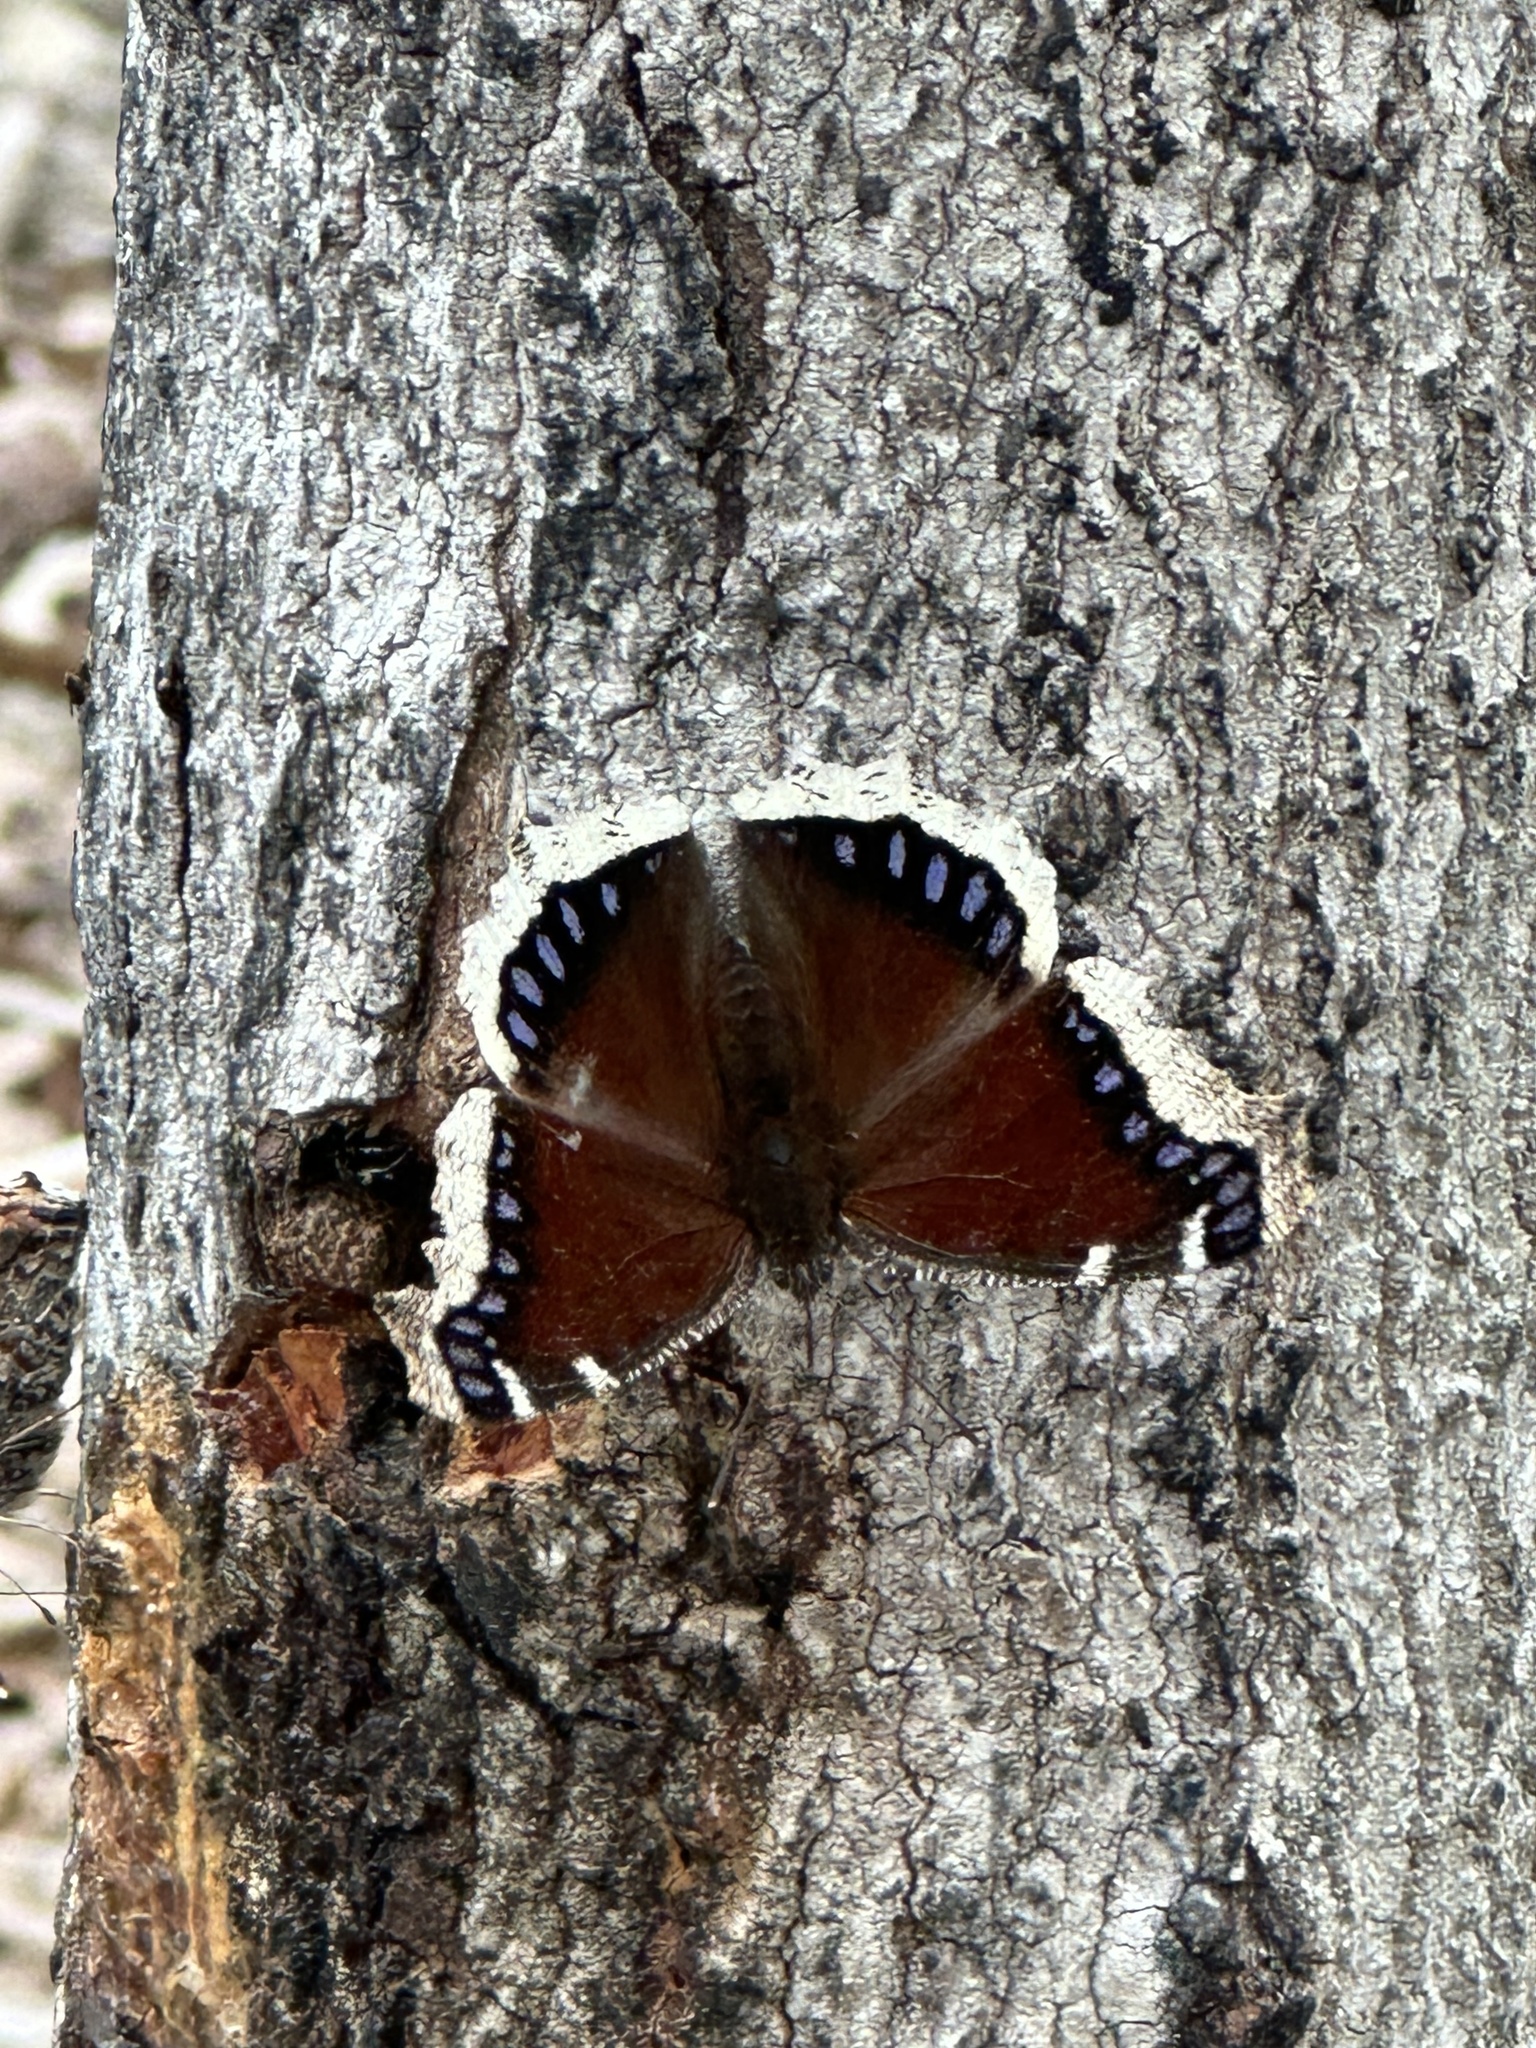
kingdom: Animalia
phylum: Arthropoda
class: Insecta
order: Lepidoptera
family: Nymphalidae
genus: Nymphalis
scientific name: Nymphalis antiopa
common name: Camberwell beauty
